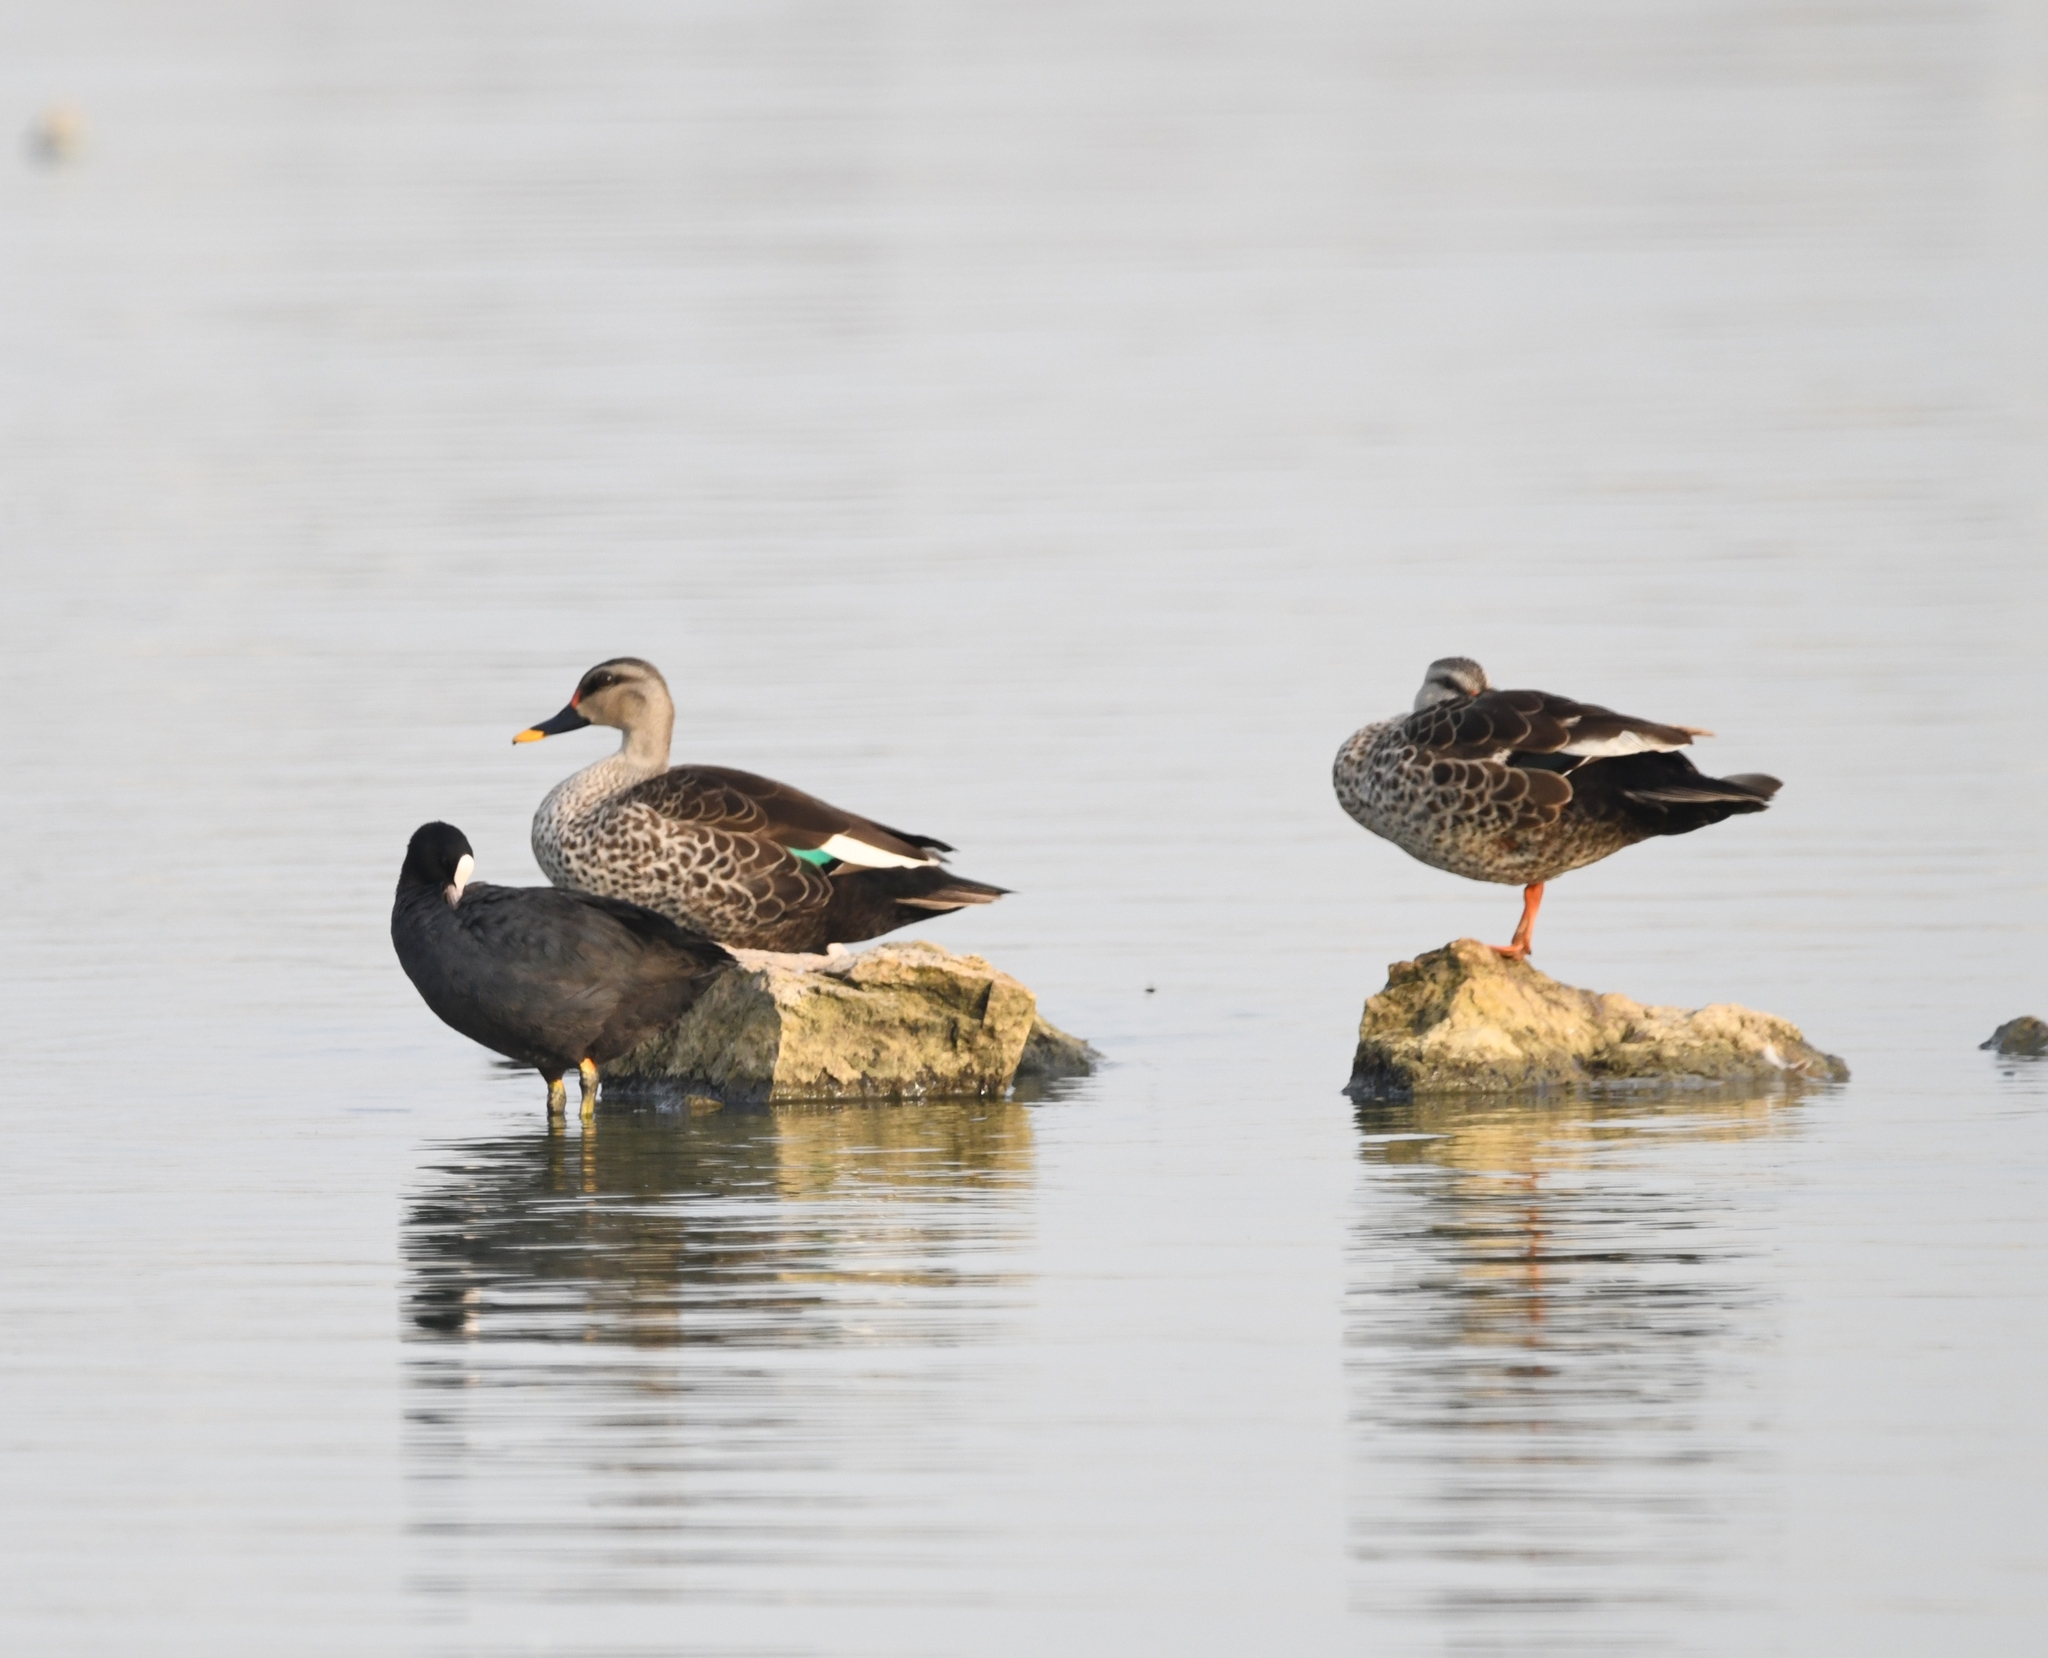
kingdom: Animalia
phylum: Chordata
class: Aves
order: Anseriformes
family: Anatidae
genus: Anas
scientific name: Anas poecilorhyncha
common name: Indian spot-billed duck
